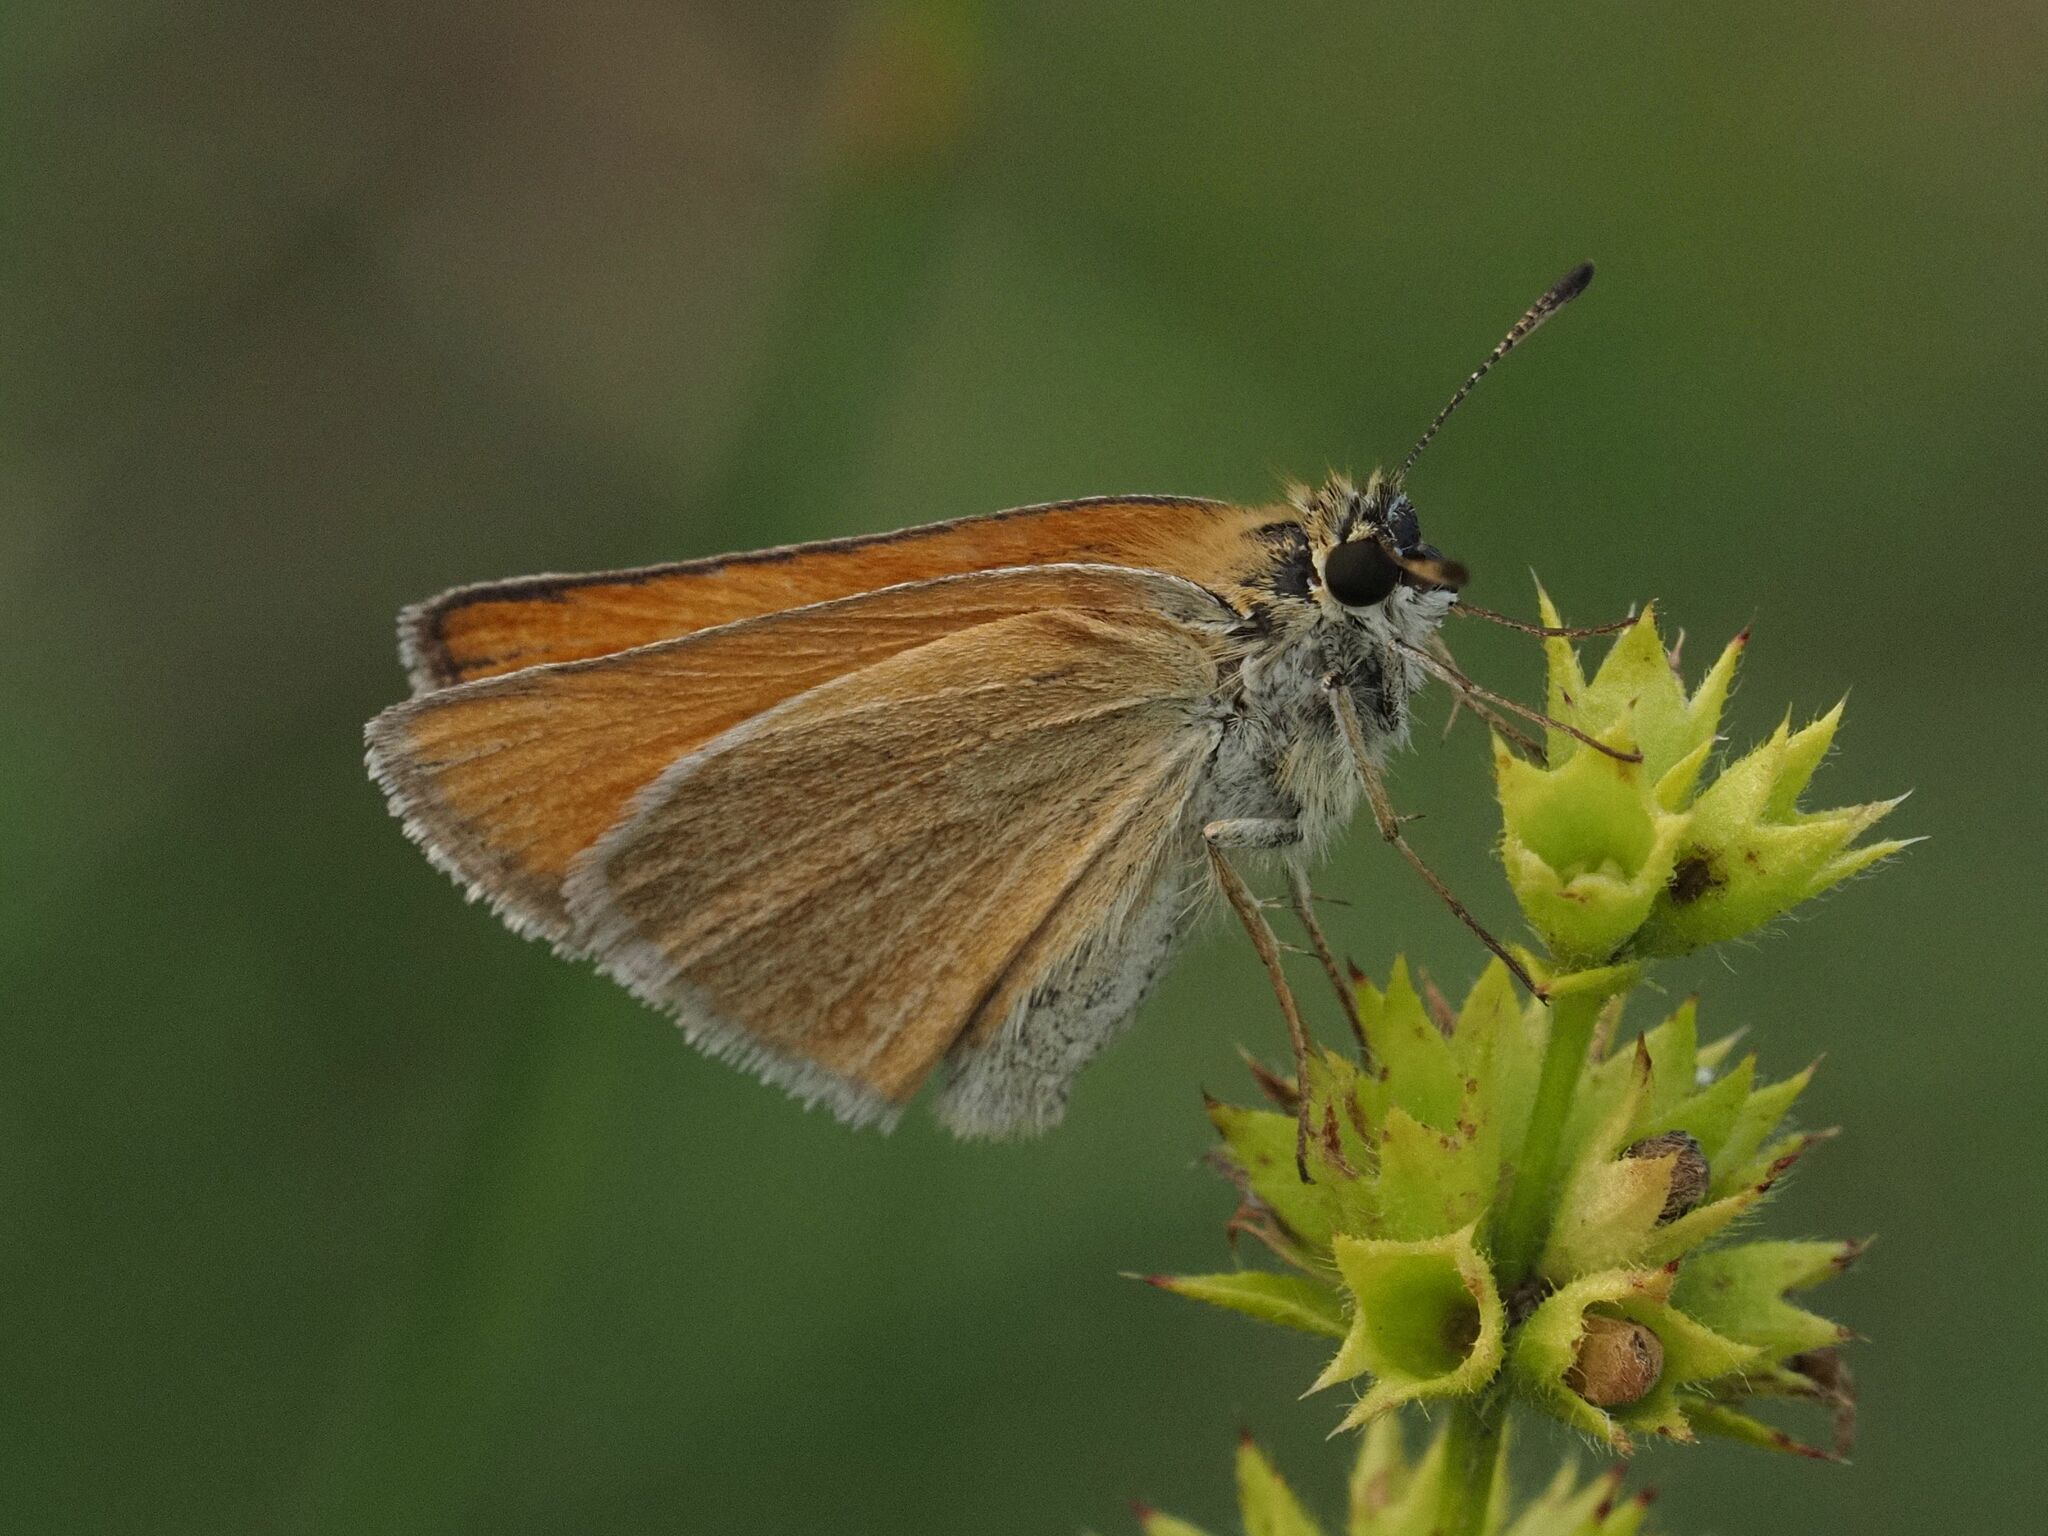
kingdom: Animalia
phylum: Arthropoda
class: Insecta
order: Lepidoptera
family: Hesperiidae
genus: Thymelicus
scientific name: Thymelicus lineola
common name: Essex skipper
